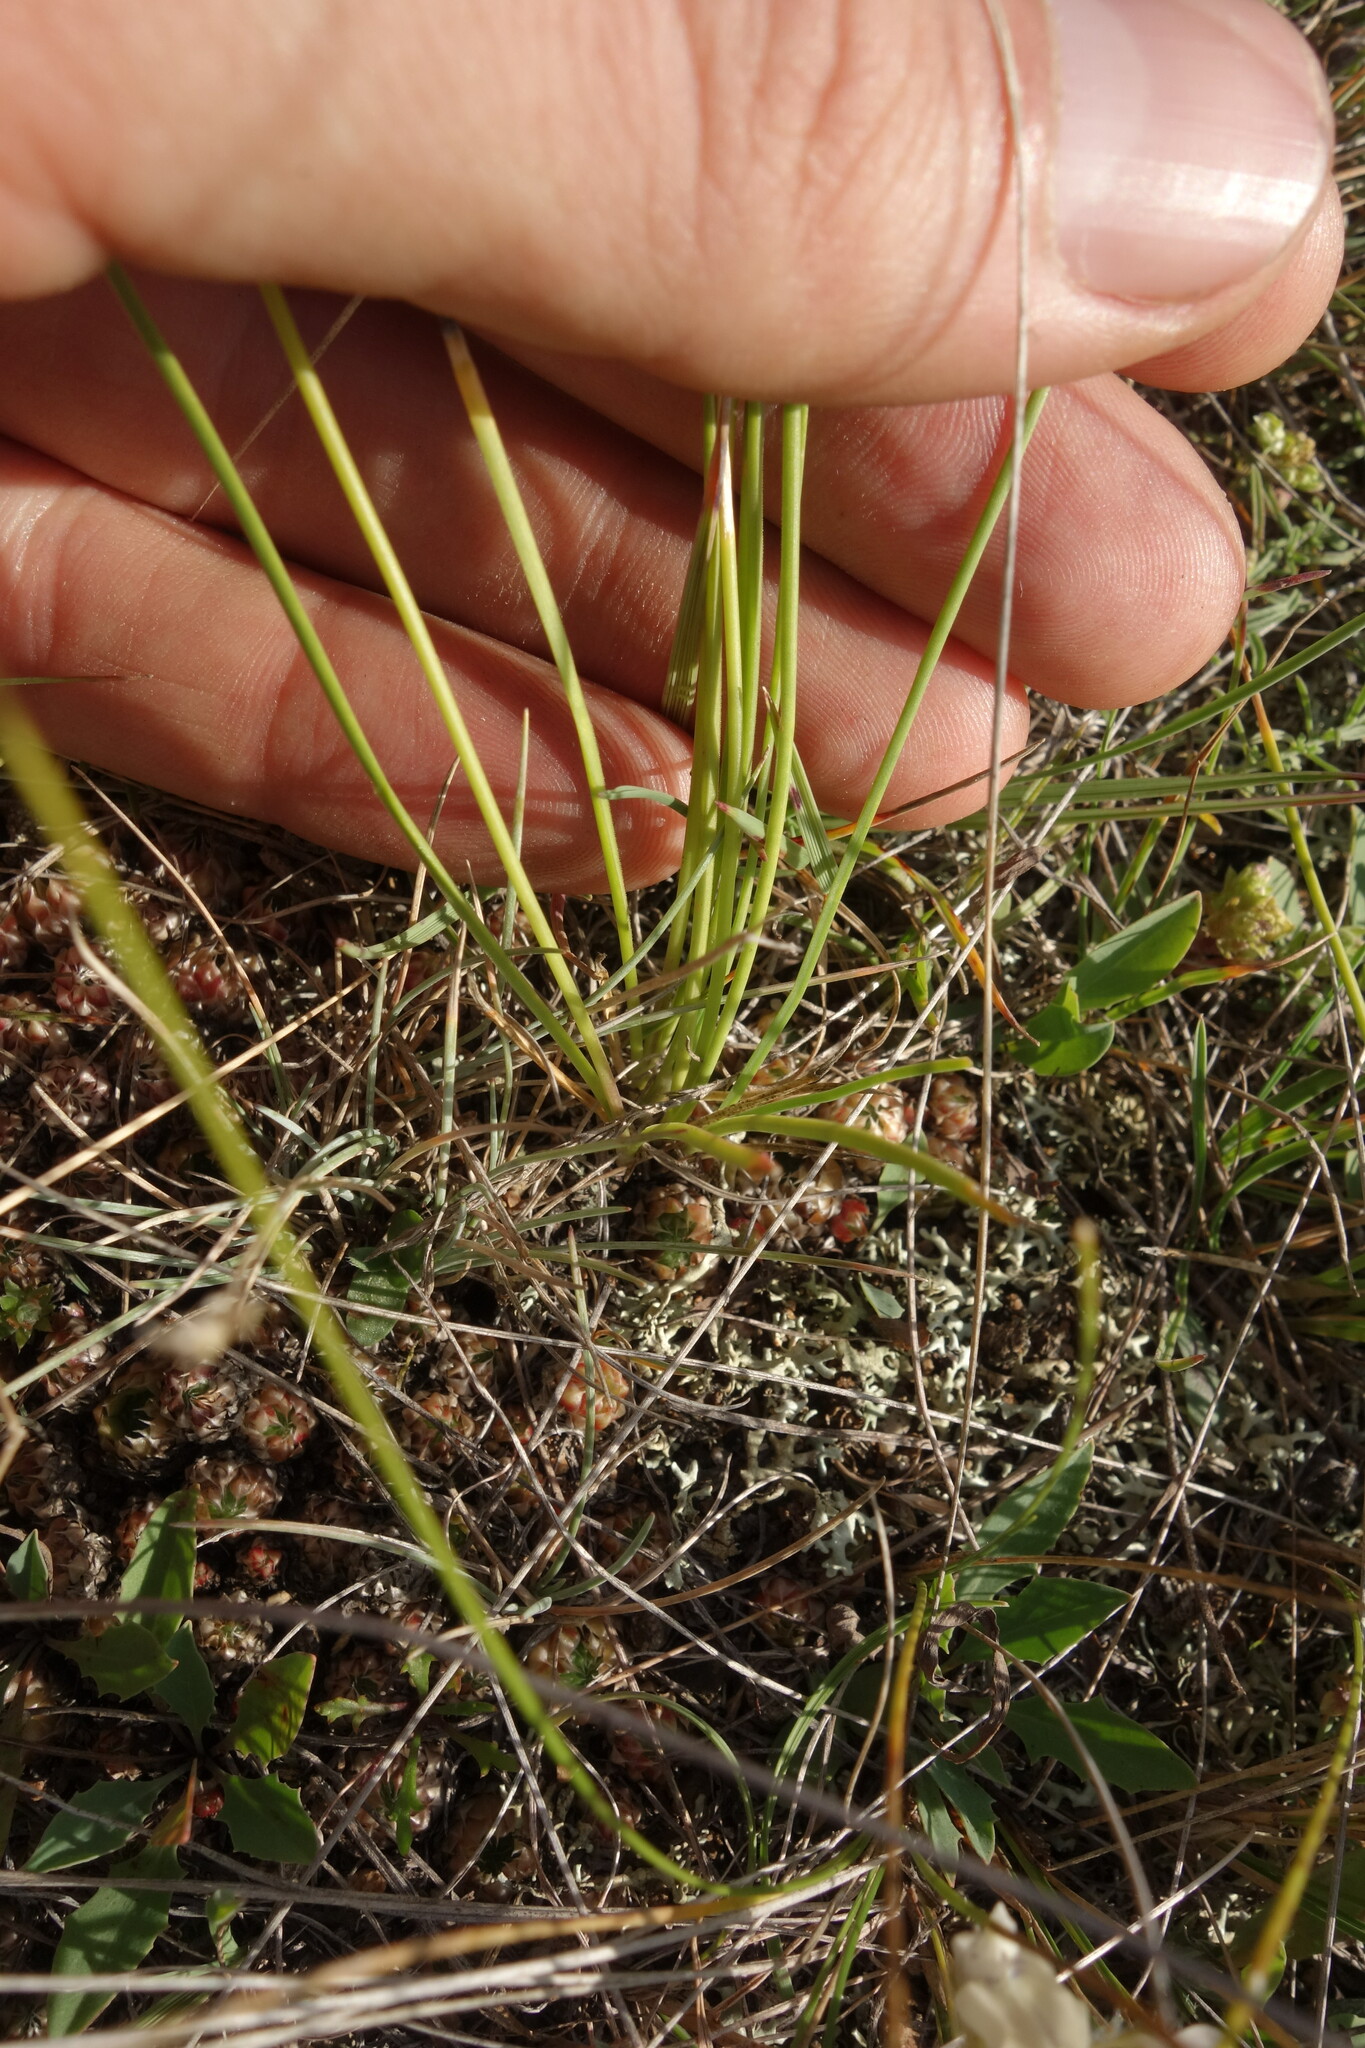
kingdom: Plantae
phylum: Tracheophyta
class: Liliopsida
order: Asparagales
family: Amaryllidaceae
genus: Allium
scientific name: Allium bidentatum
